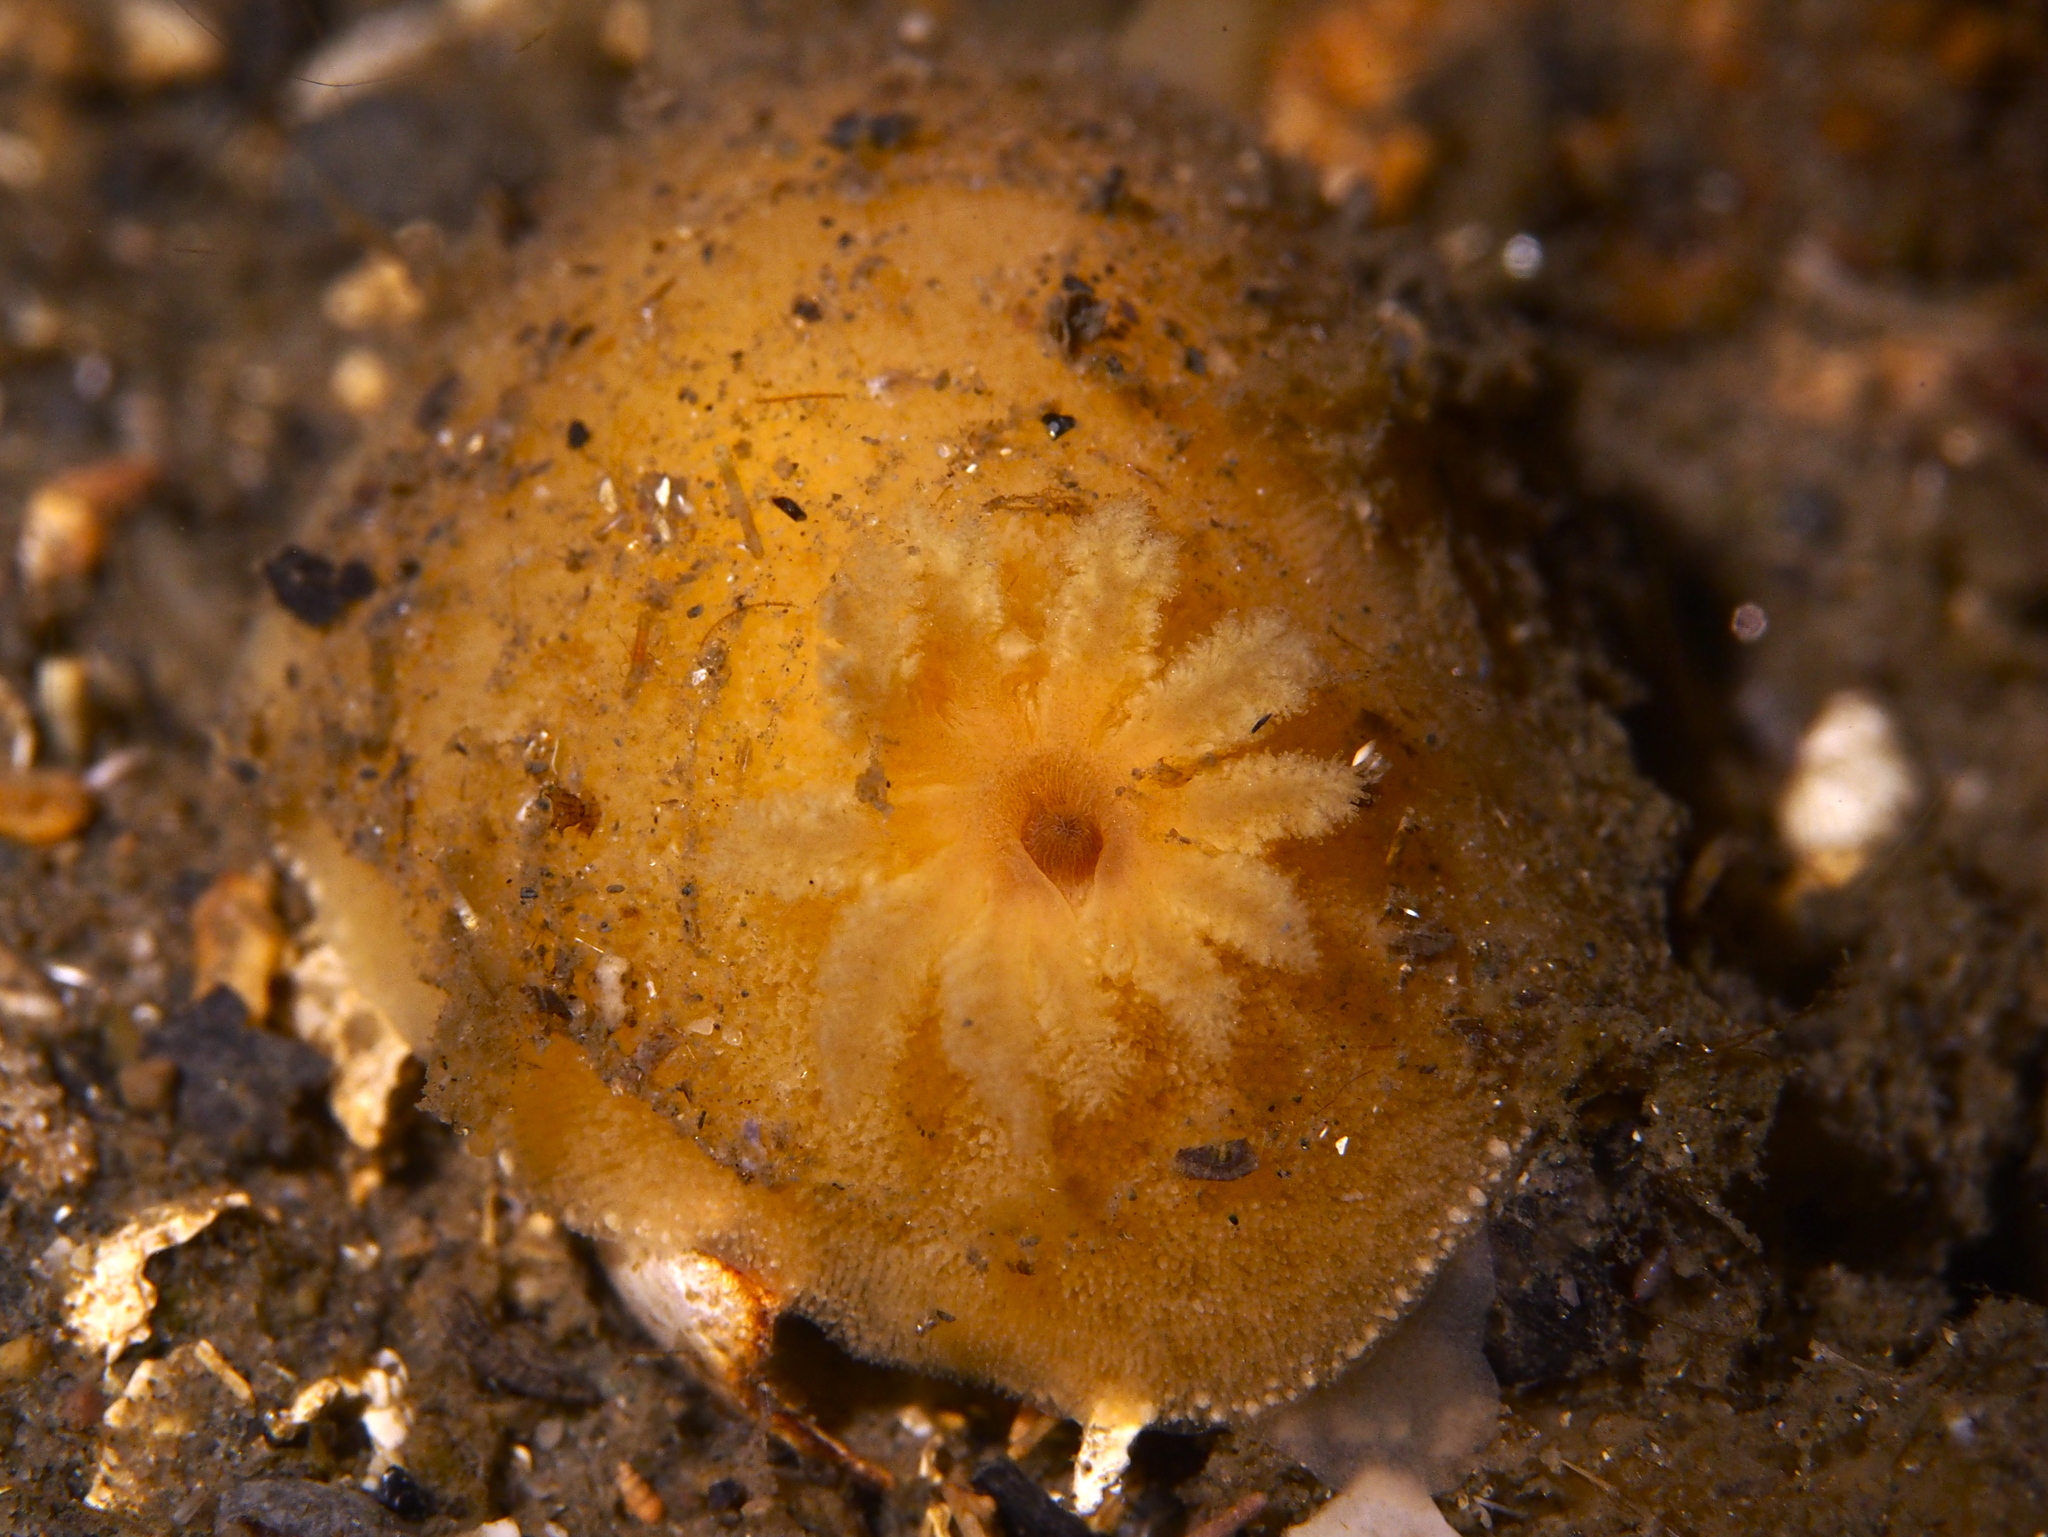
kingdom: Animalia
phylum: Mollusca
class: Gastropoda
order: Nudibranchia
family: Discodorididae
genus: Jorunna
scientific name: Jorunna tomentosa
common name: Grey sea slug
